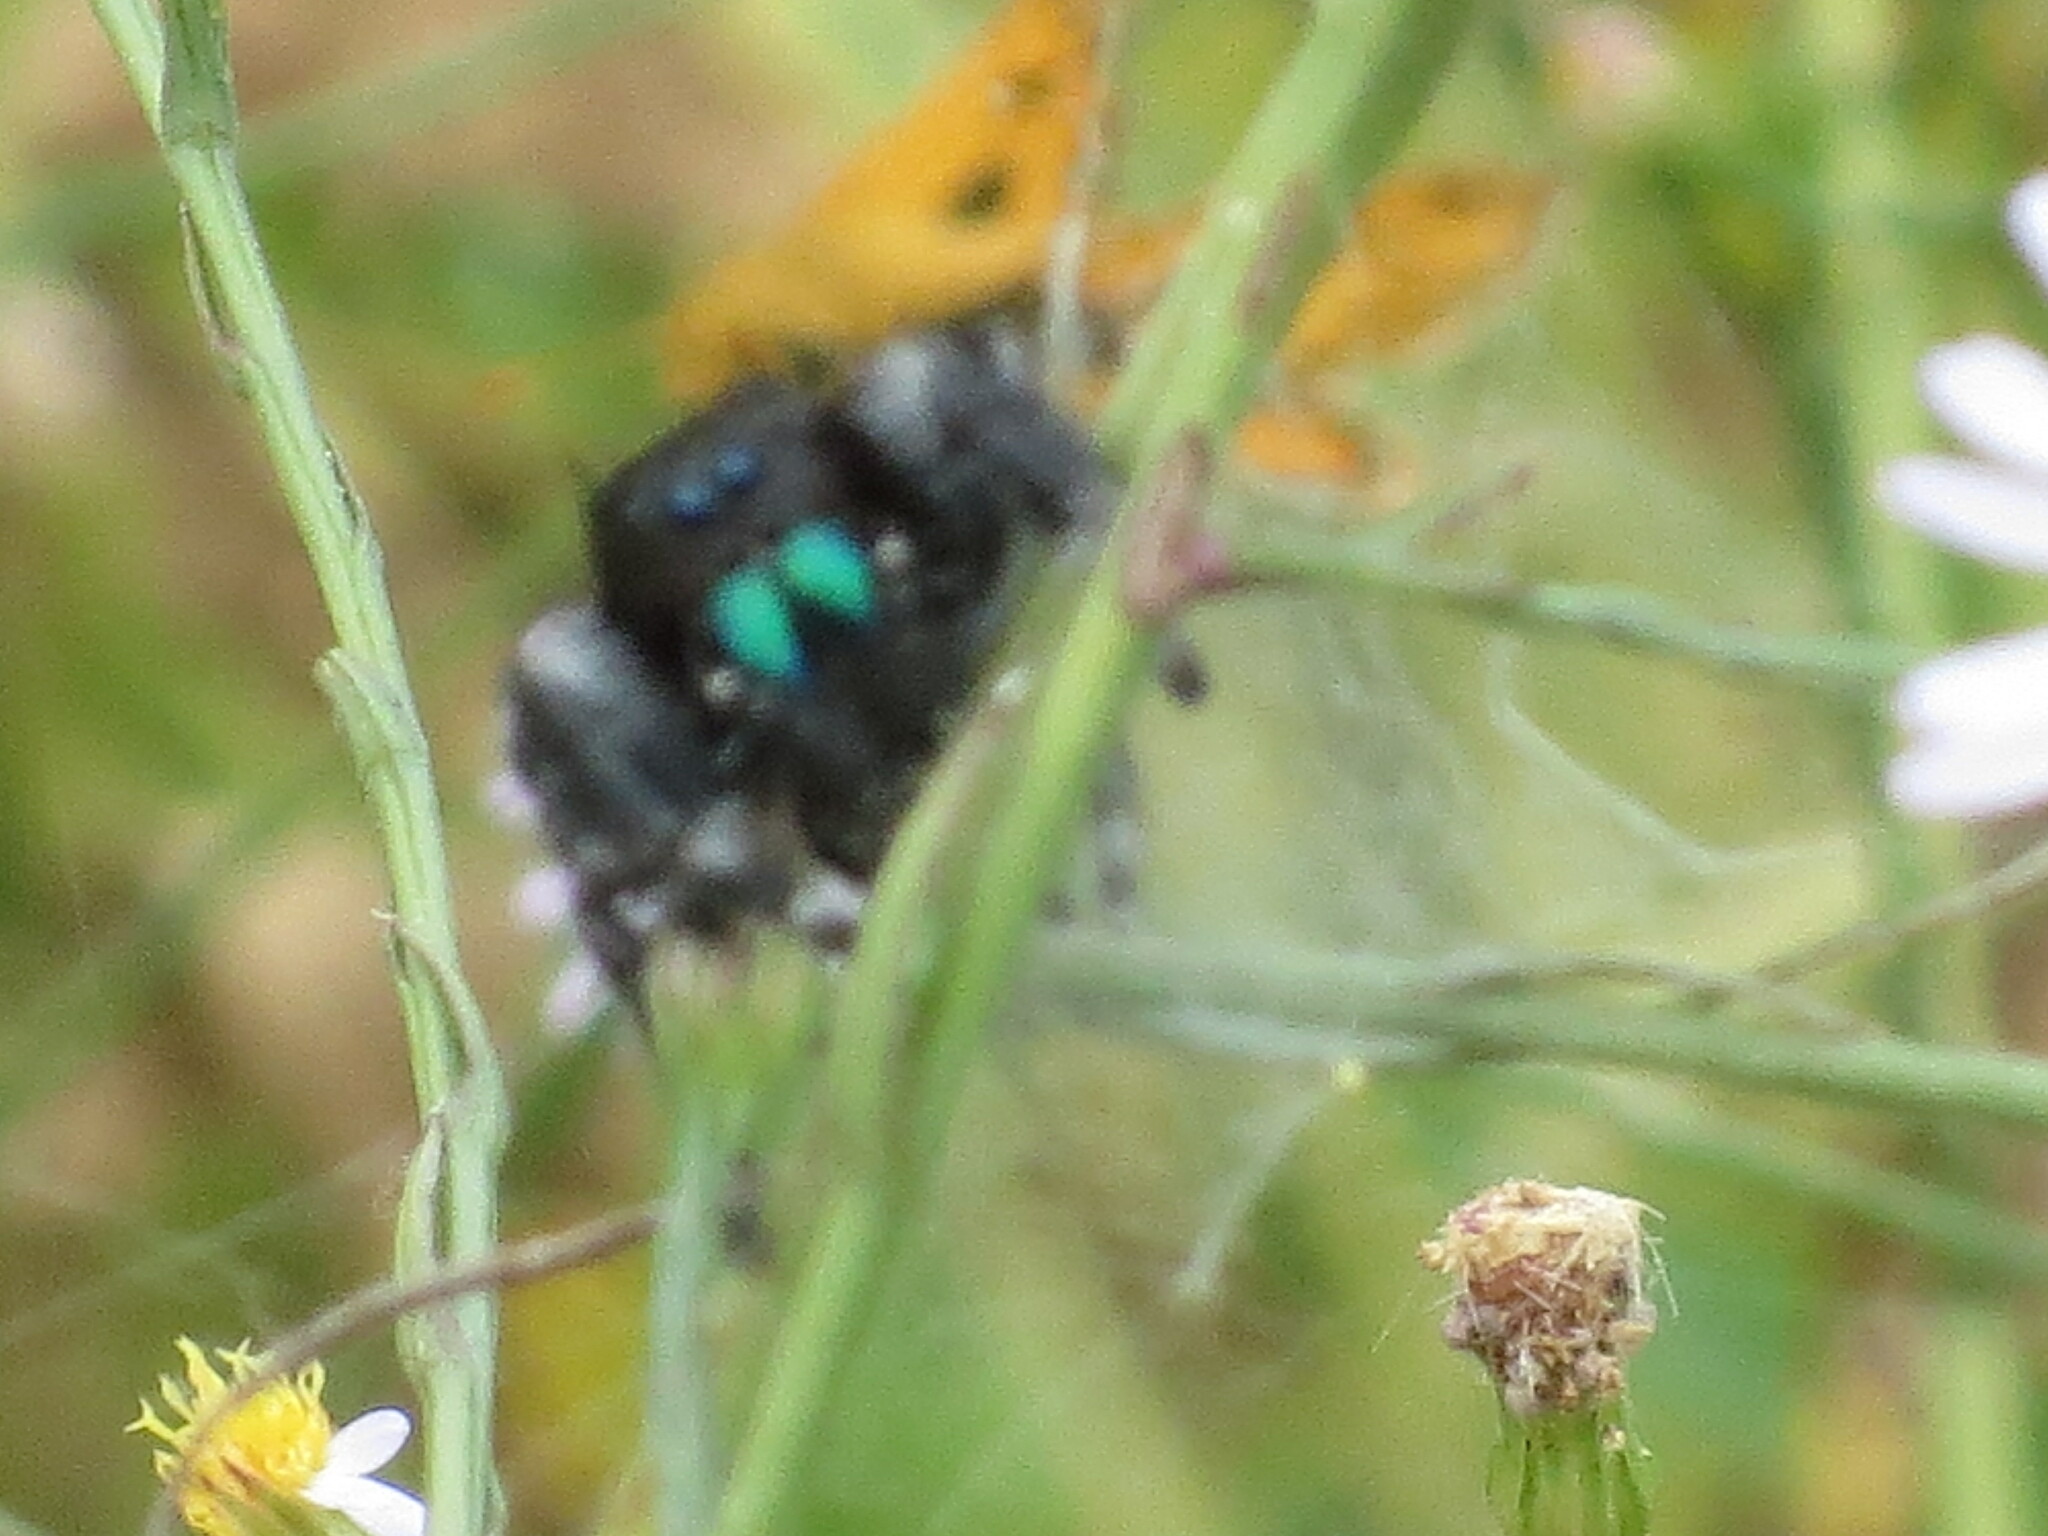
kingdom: Animalia
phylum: Arthropoda
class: Arachnida
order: Araneae
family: Salticidae
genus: Phidippus
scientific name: Phidippus audax
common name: Bold jumper
